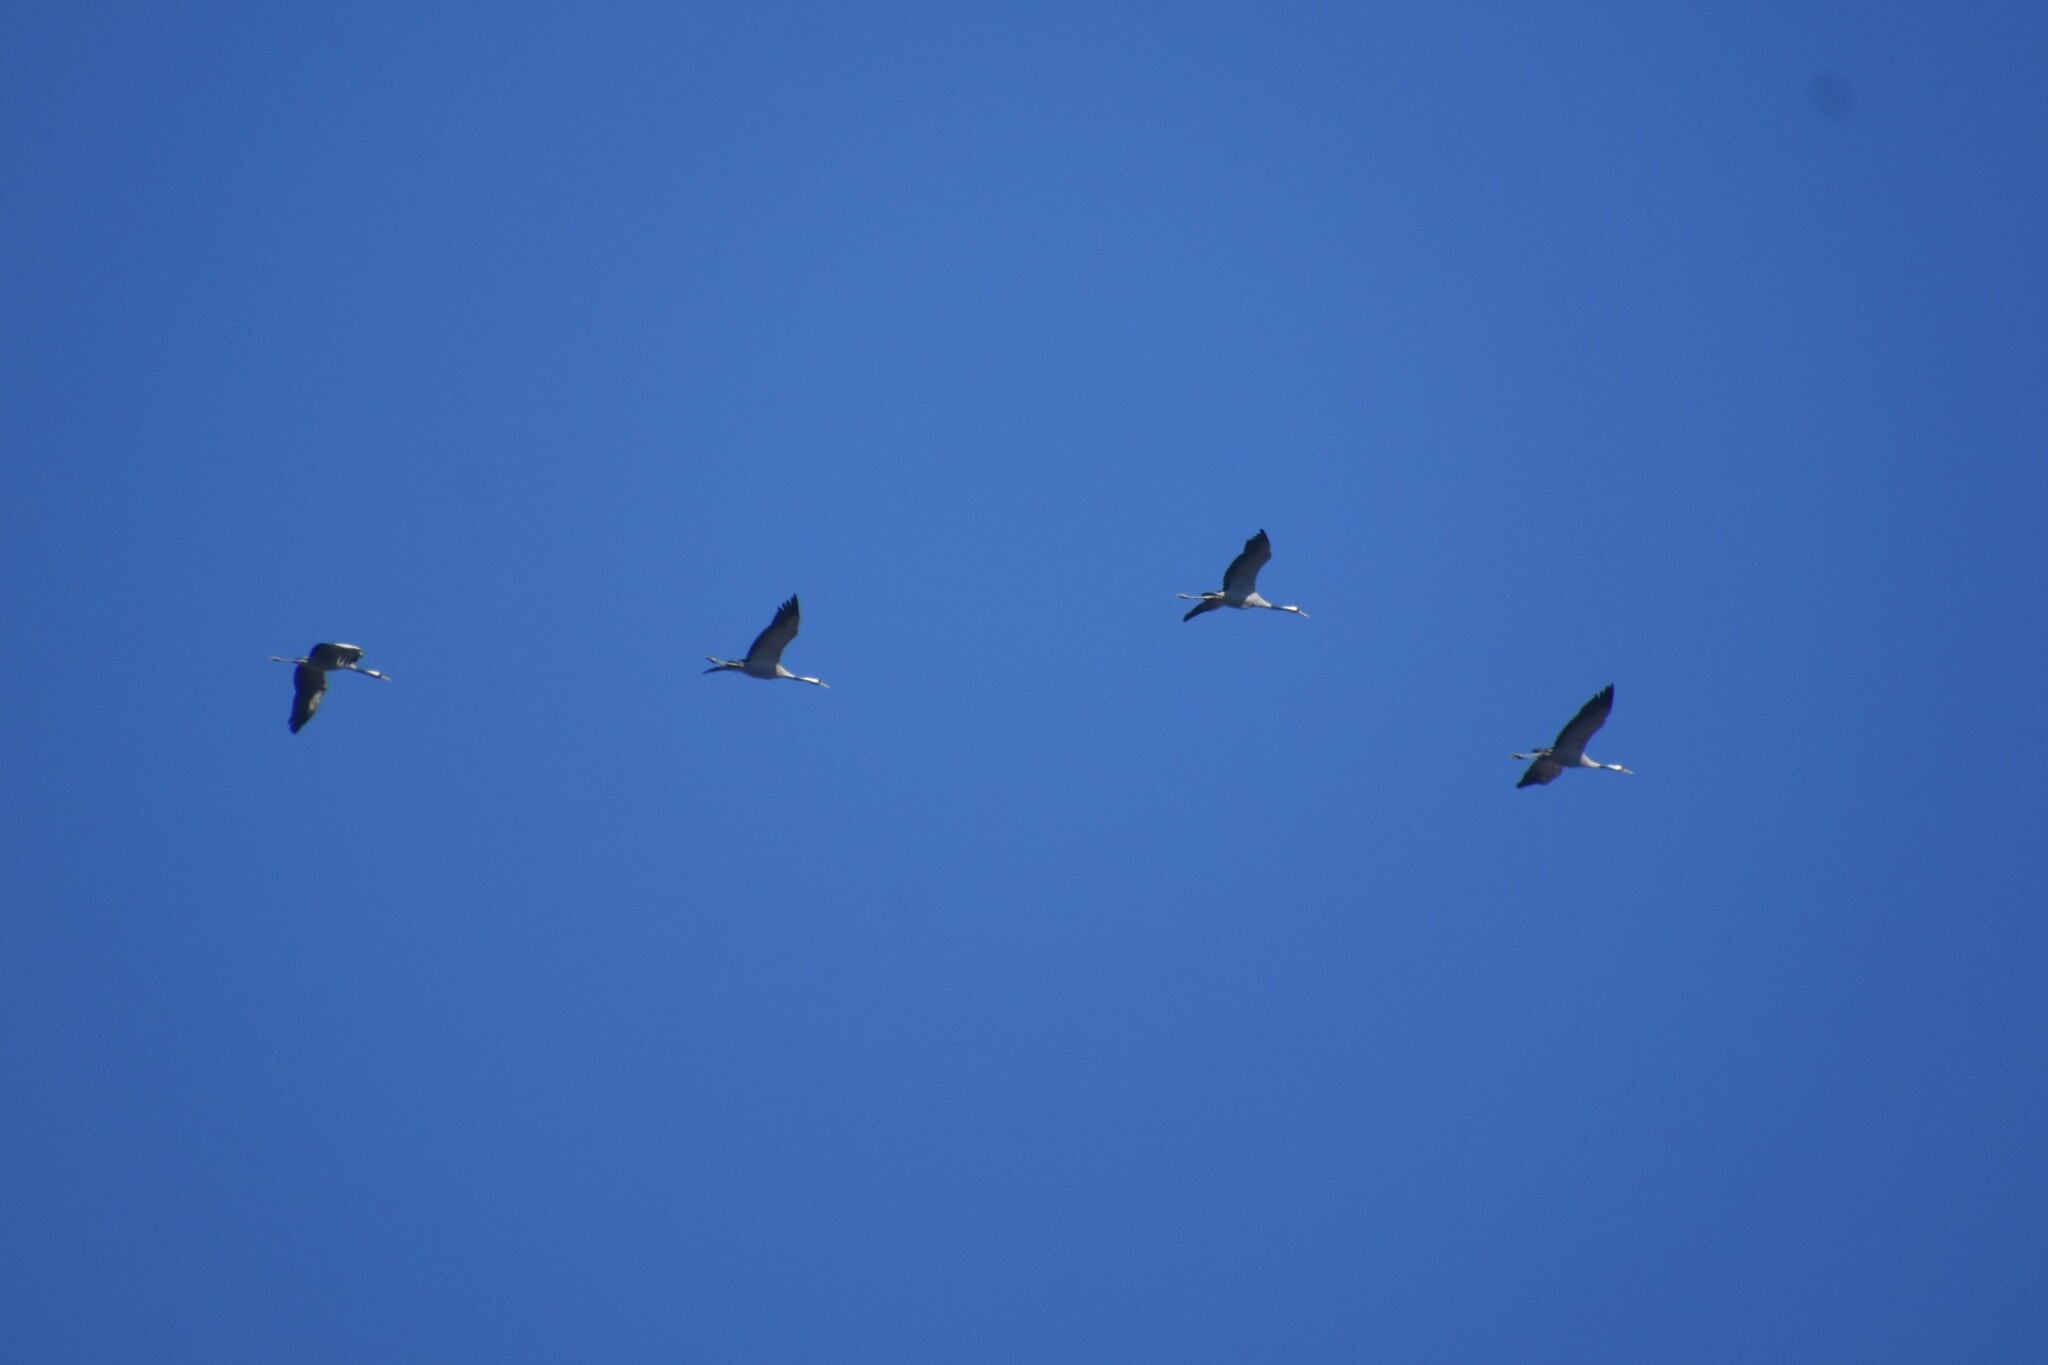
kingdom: Animalia
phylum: Chordata
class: Aves
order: Gruiformes
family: Gruidae
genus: Grus
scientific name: Grus grus
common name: Common crane
